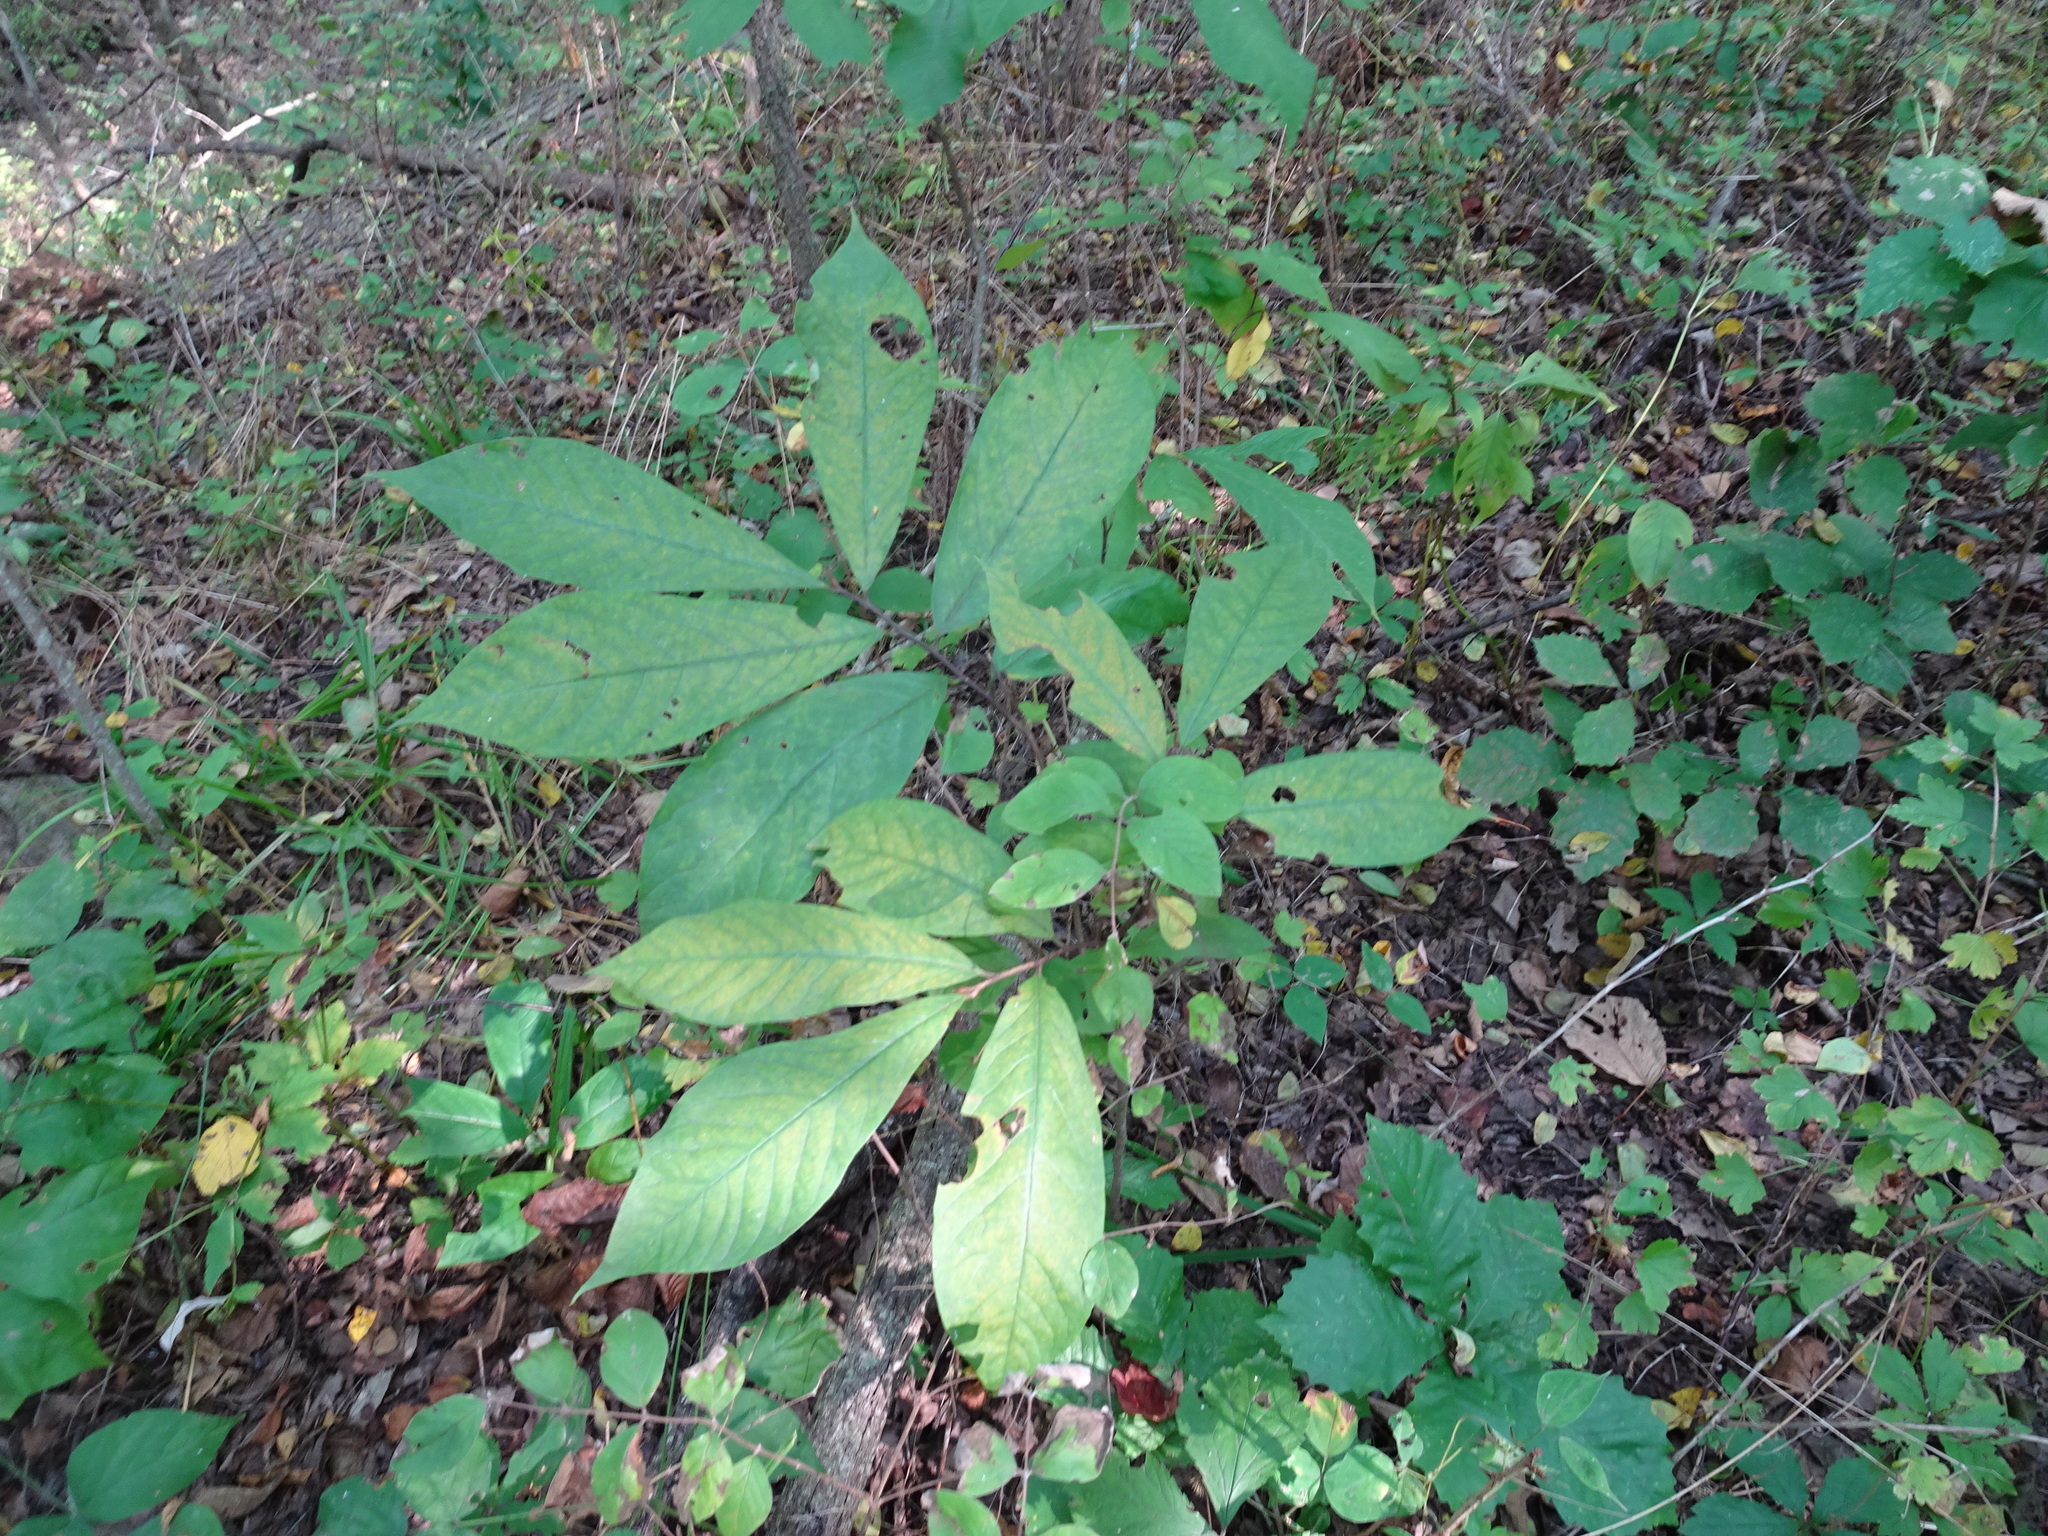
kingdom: Plantae
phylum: Tracheophyta
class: Magnoliopsida
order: Magnoliales
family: Annonaceae
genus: Asimina
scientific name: Asimina triloba
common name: Dog-banana
